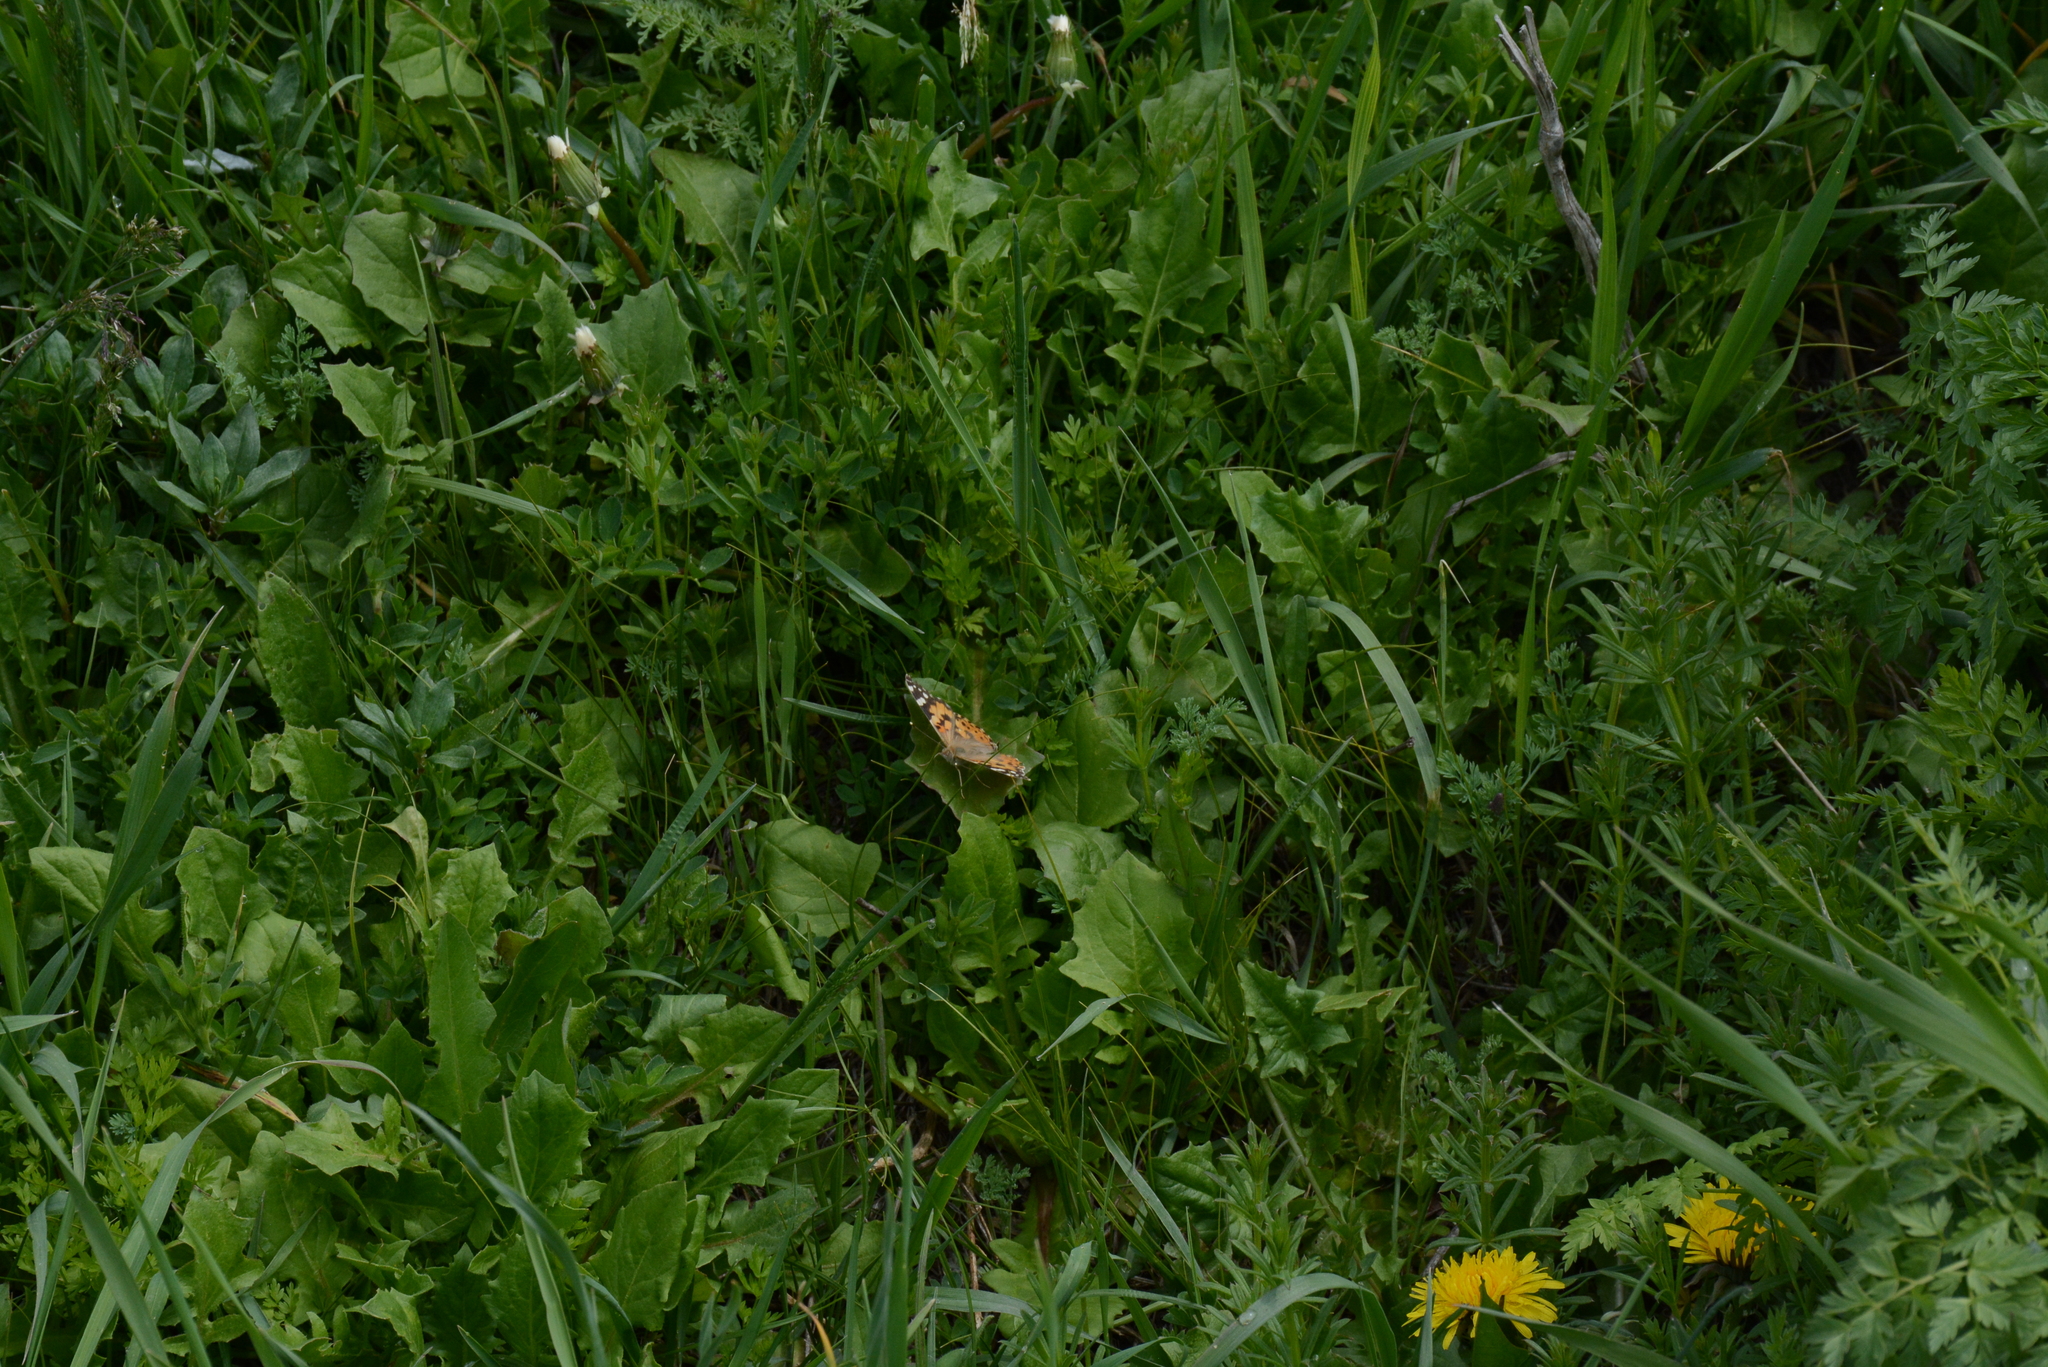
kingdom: Animalia
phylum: Arthropoda
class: Insecta
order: Lepidoptera
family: Nymphalidae
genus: Vanessa
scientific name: Vanessa cardui
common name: Painted lady
